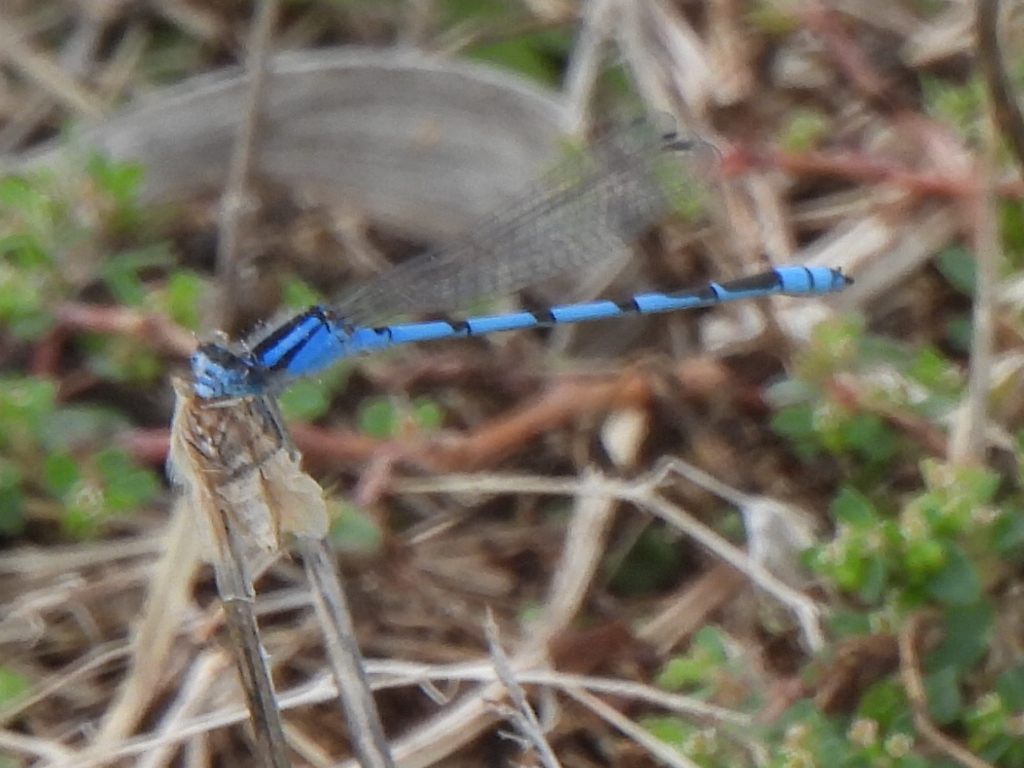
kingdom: Animalia
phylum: Arthropoda
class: Insecta
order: Odonata
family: Coenagrionidae
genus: Enallagma
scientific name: Enallagma civile
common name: Damselfly
